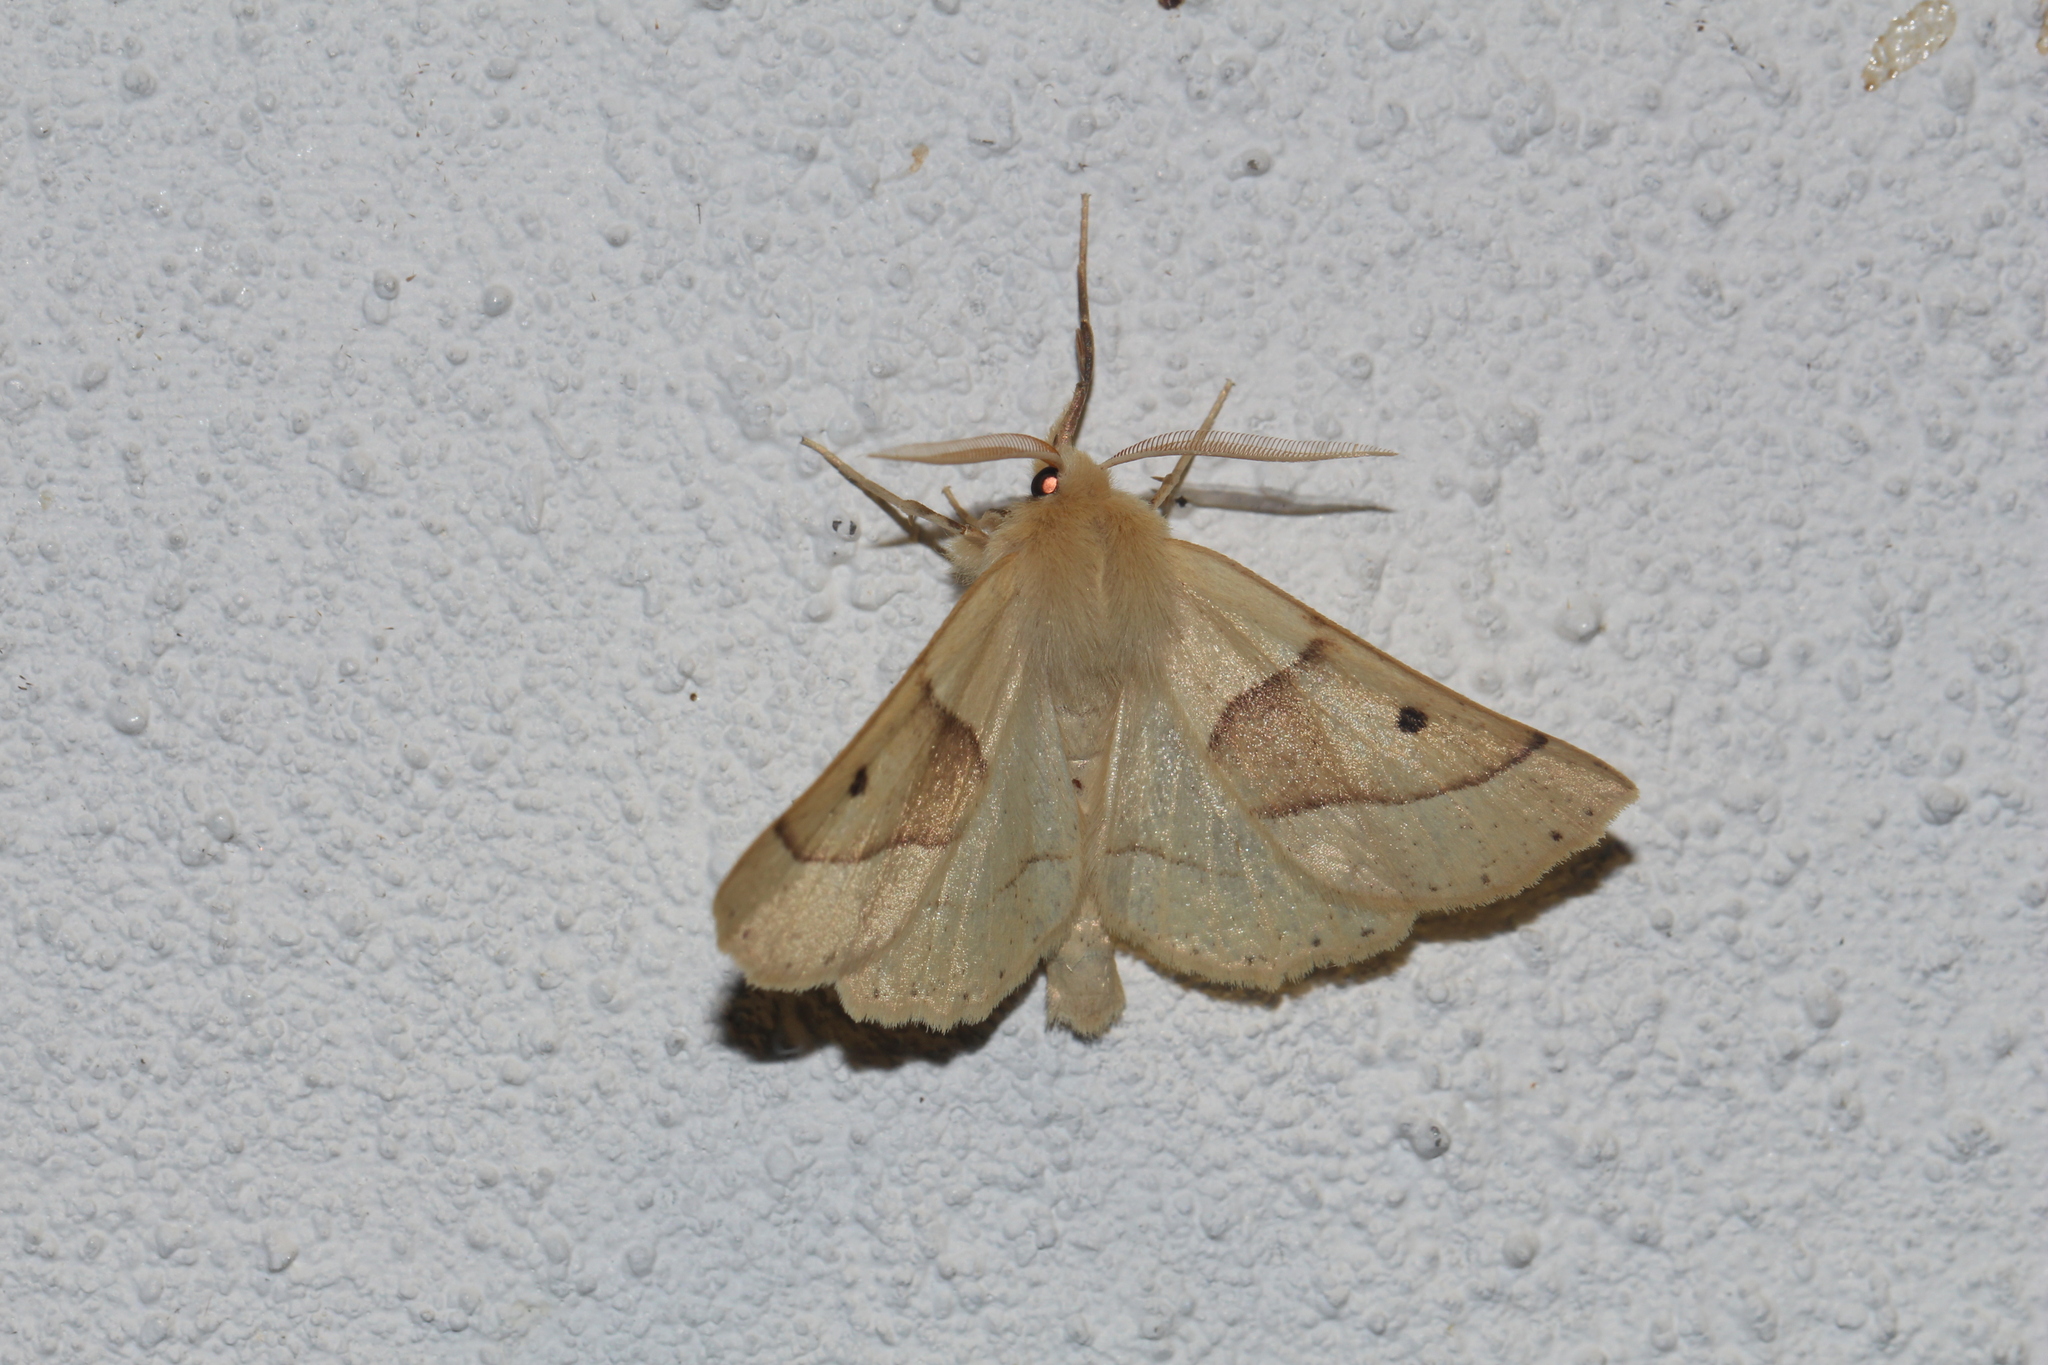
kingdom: Animalia
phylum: Arthropoda
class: Insecta
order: Lepidoptera
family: Geometridae
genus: Crocallis
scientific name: Crocallis elinguaria
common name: Scalloped oak
